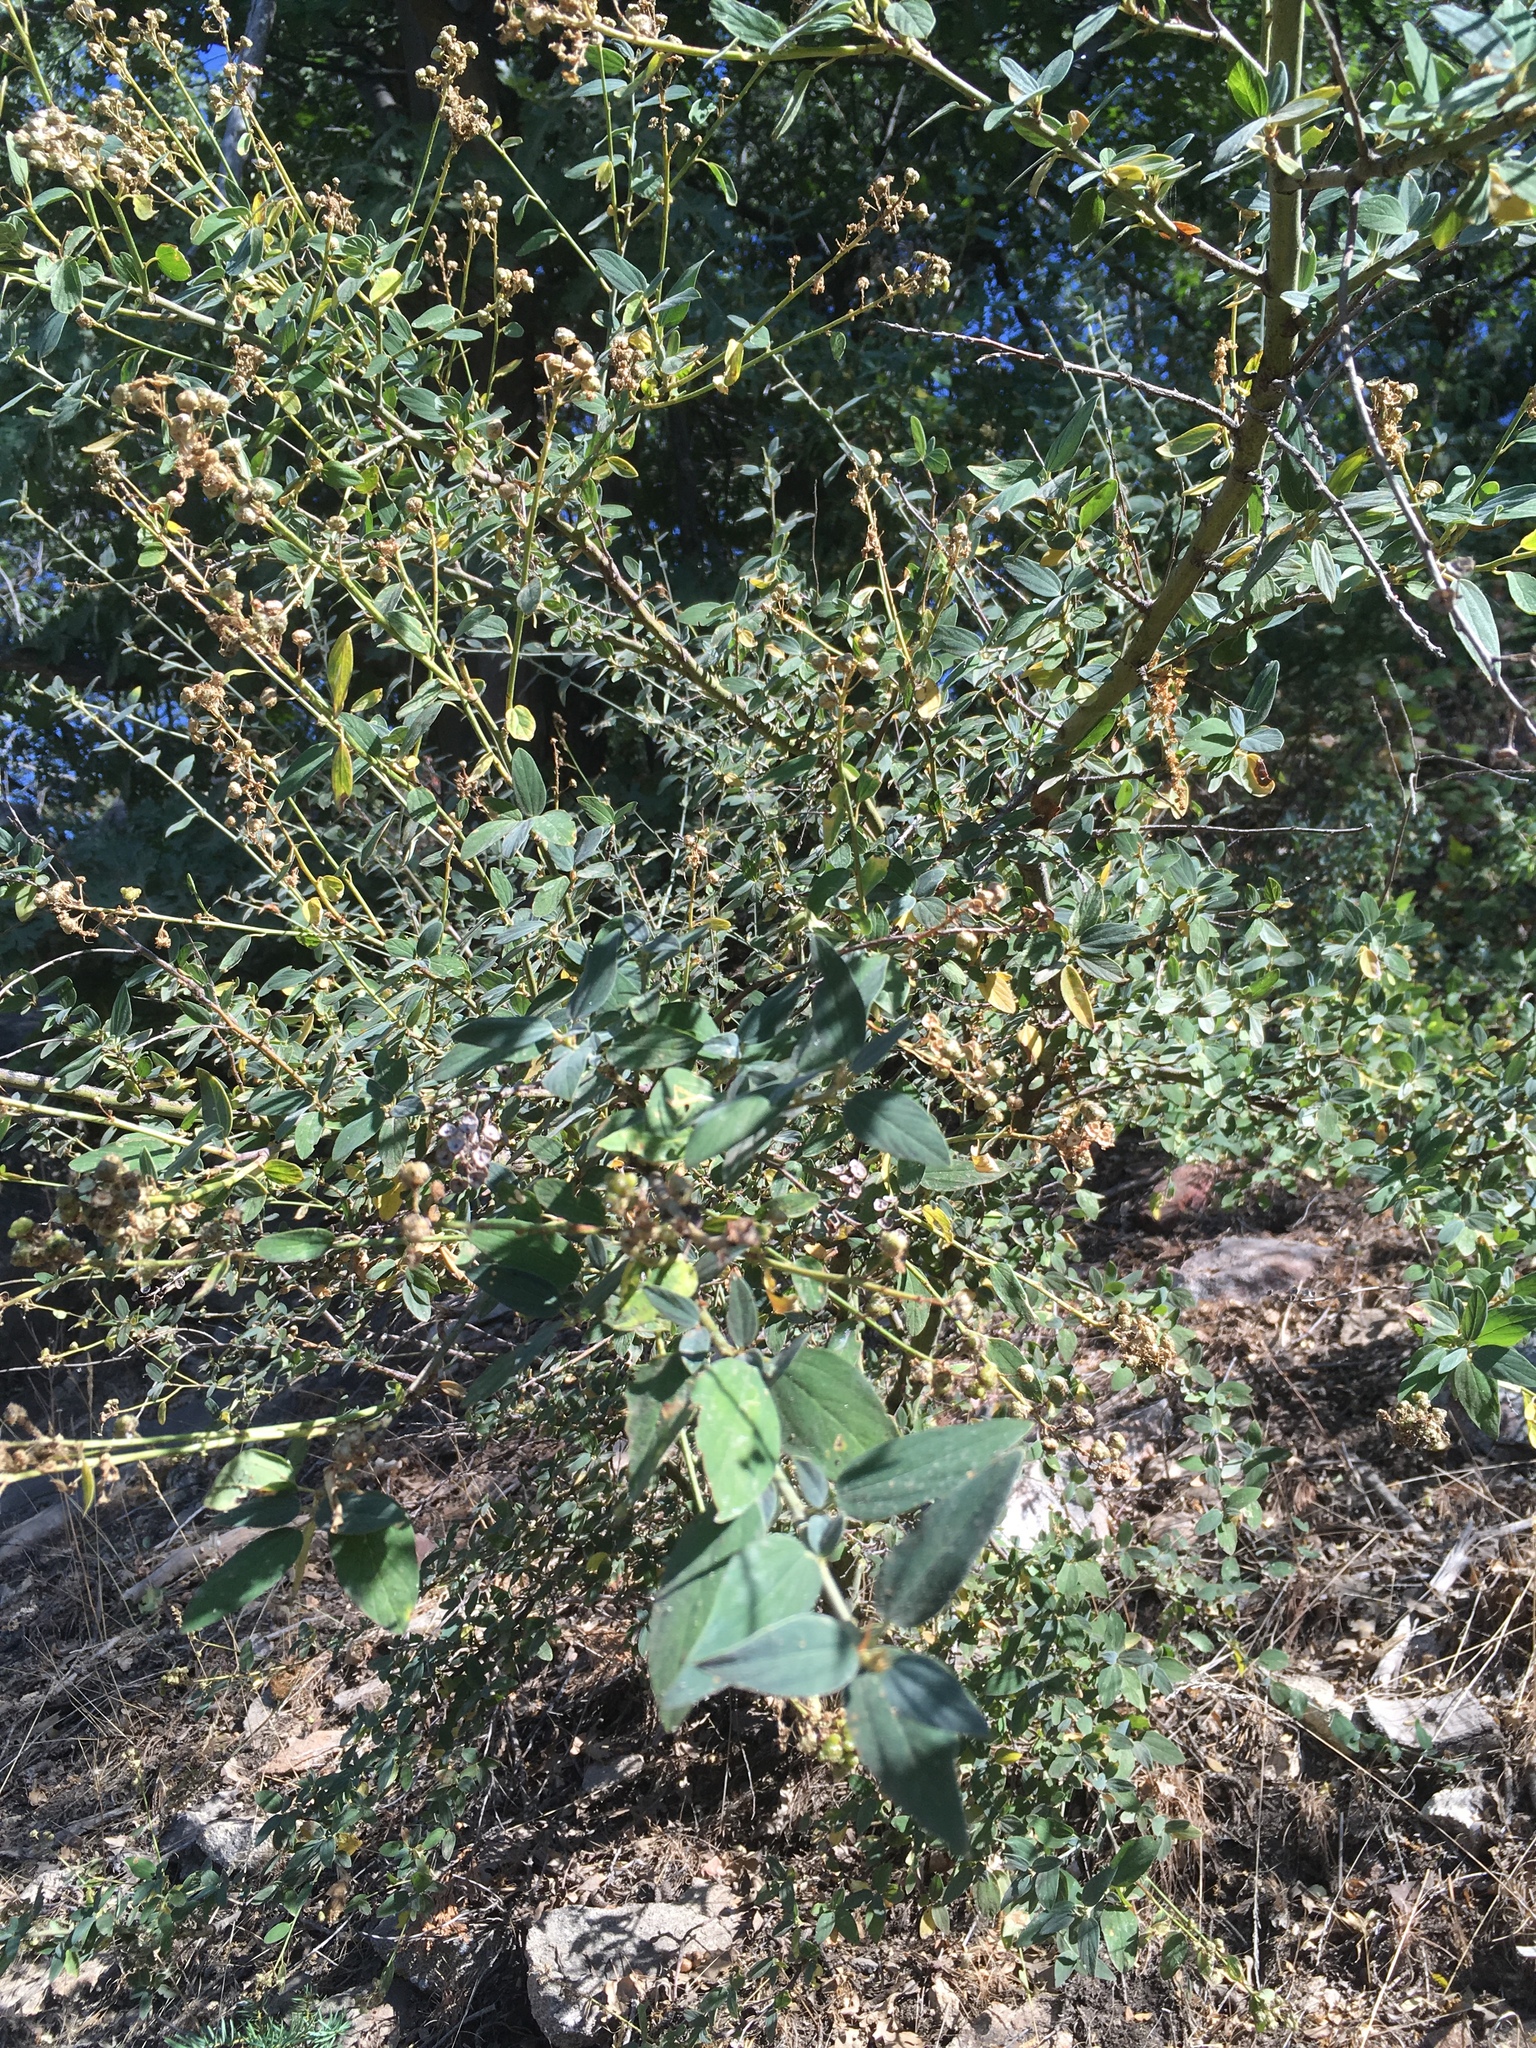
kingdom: Plantae
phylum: Tracheophyta
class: Magnoliopsida
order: Rosales
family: Rhamnaceae
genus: Ceanothus
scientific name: Ceanothus integerrimus
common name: Deerbrush ceanothus
